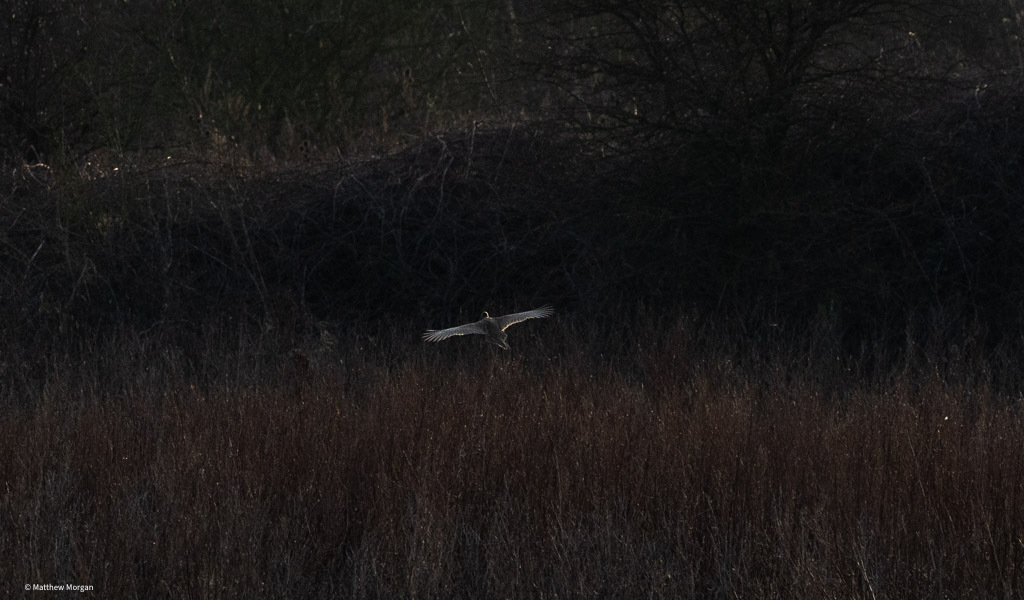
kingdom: Animalia
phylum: Chordata
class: Aves
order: Galliformes
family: Phasianidae
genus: Phasianus
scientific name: Phasianus colchicus
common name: Common pheasant
